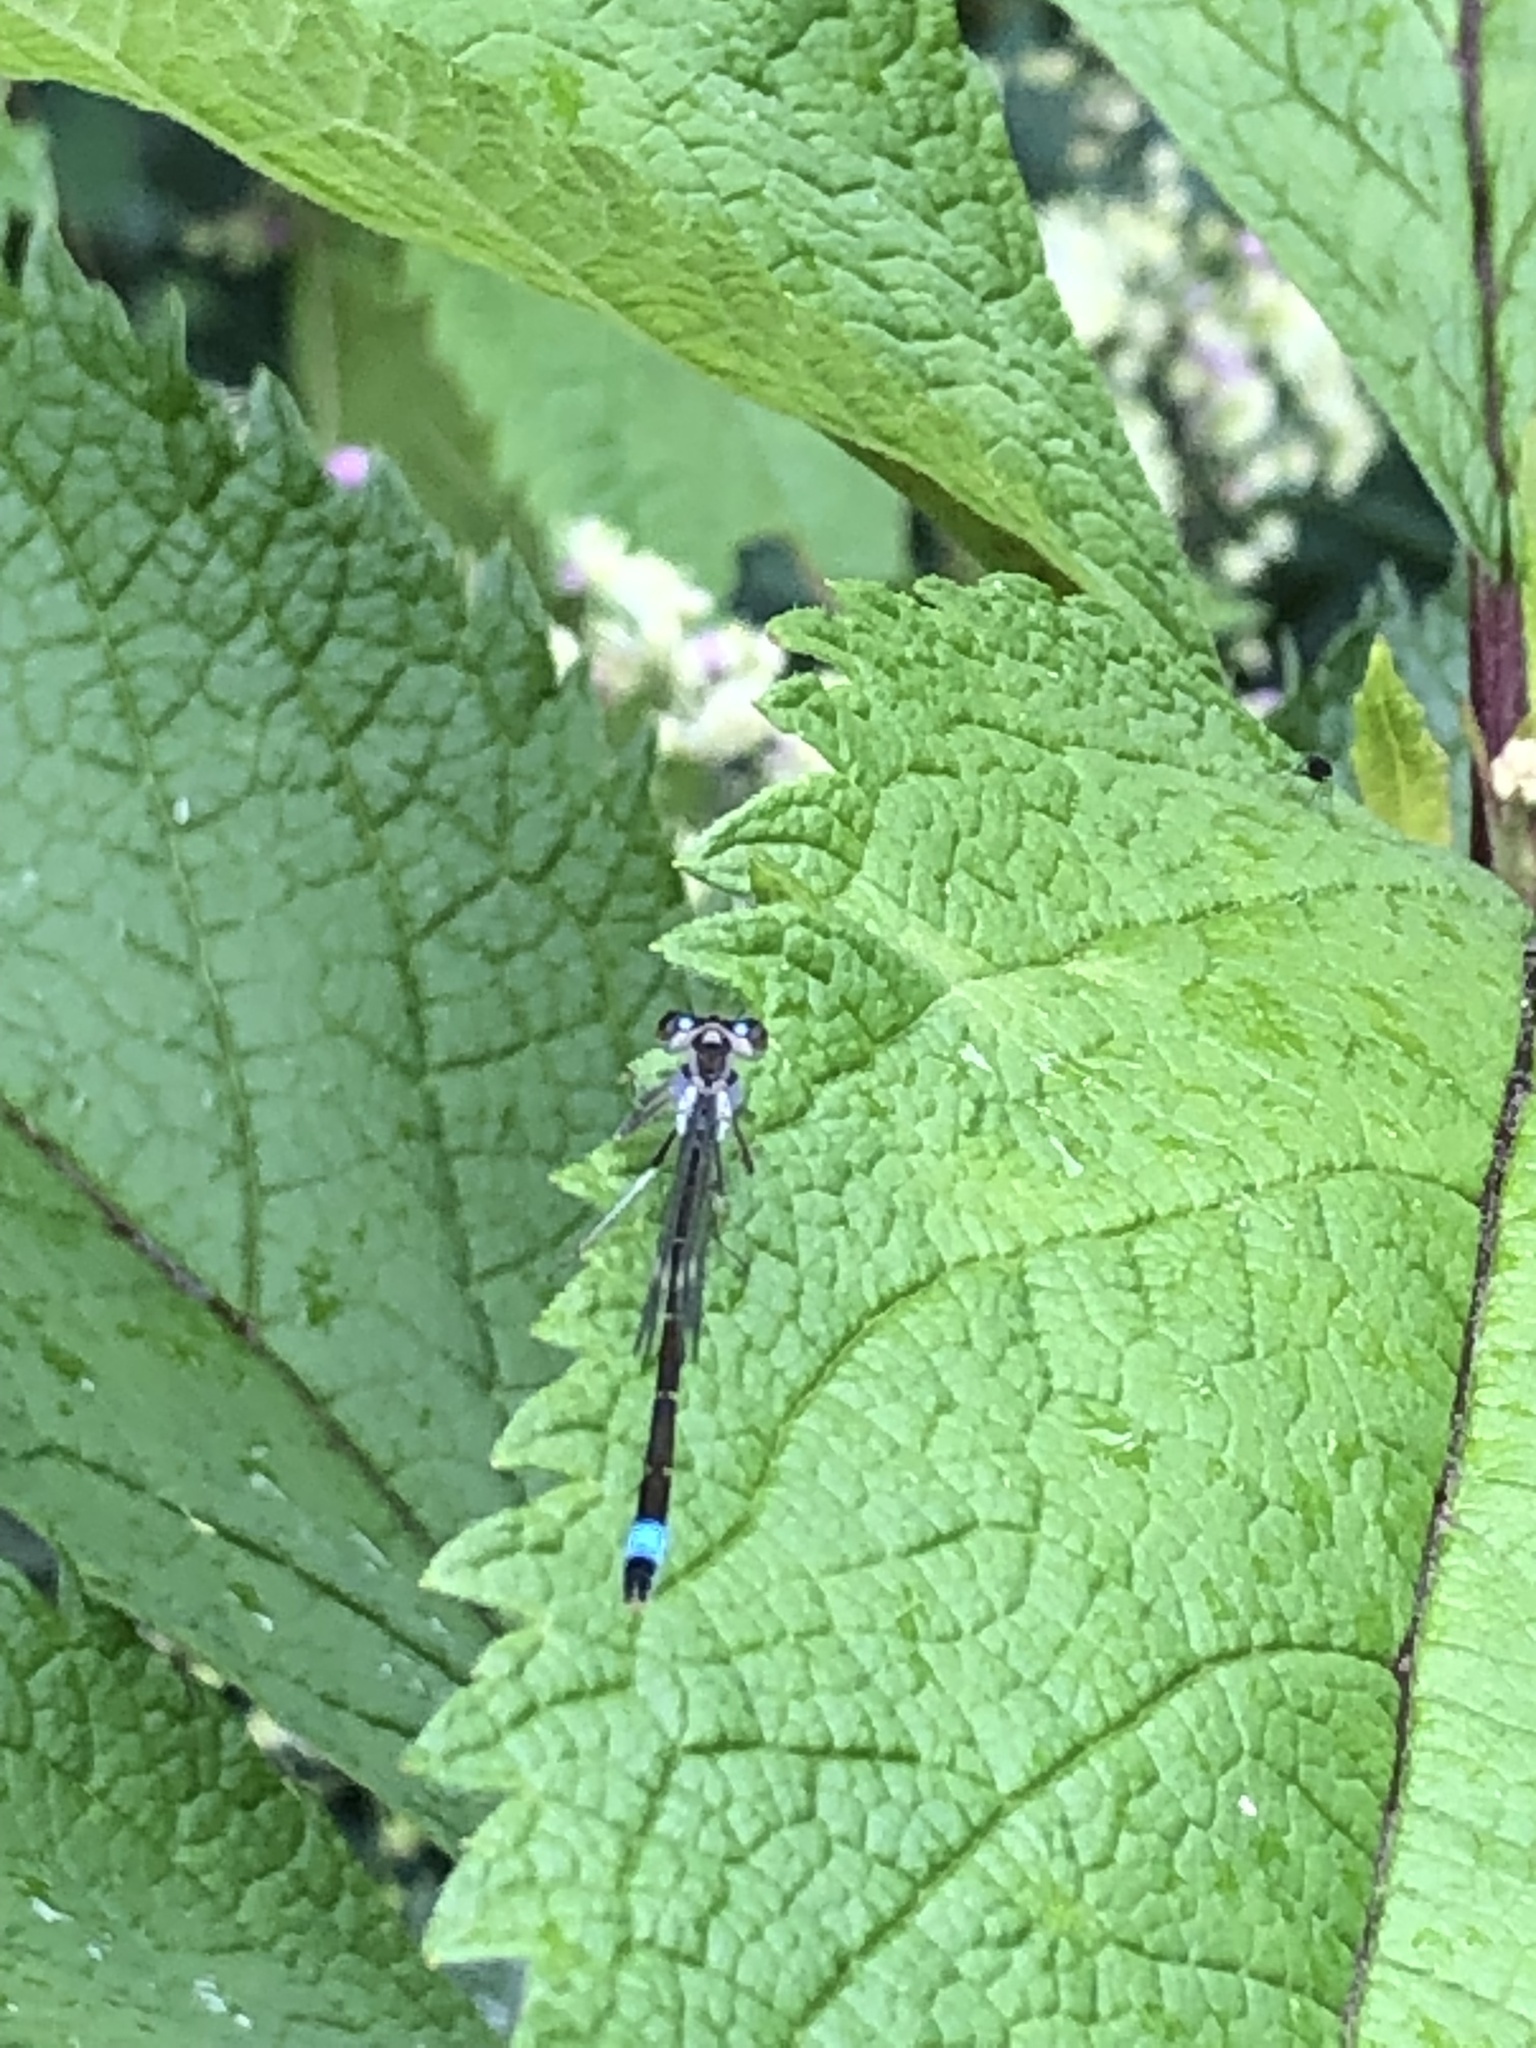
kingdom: Animalia
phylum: Arthropoda
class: Insecta
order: Odonata
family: Coenagrionidae
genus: Ischnura
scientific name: Ischnura elegans
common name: Blue-tailed damselfly
